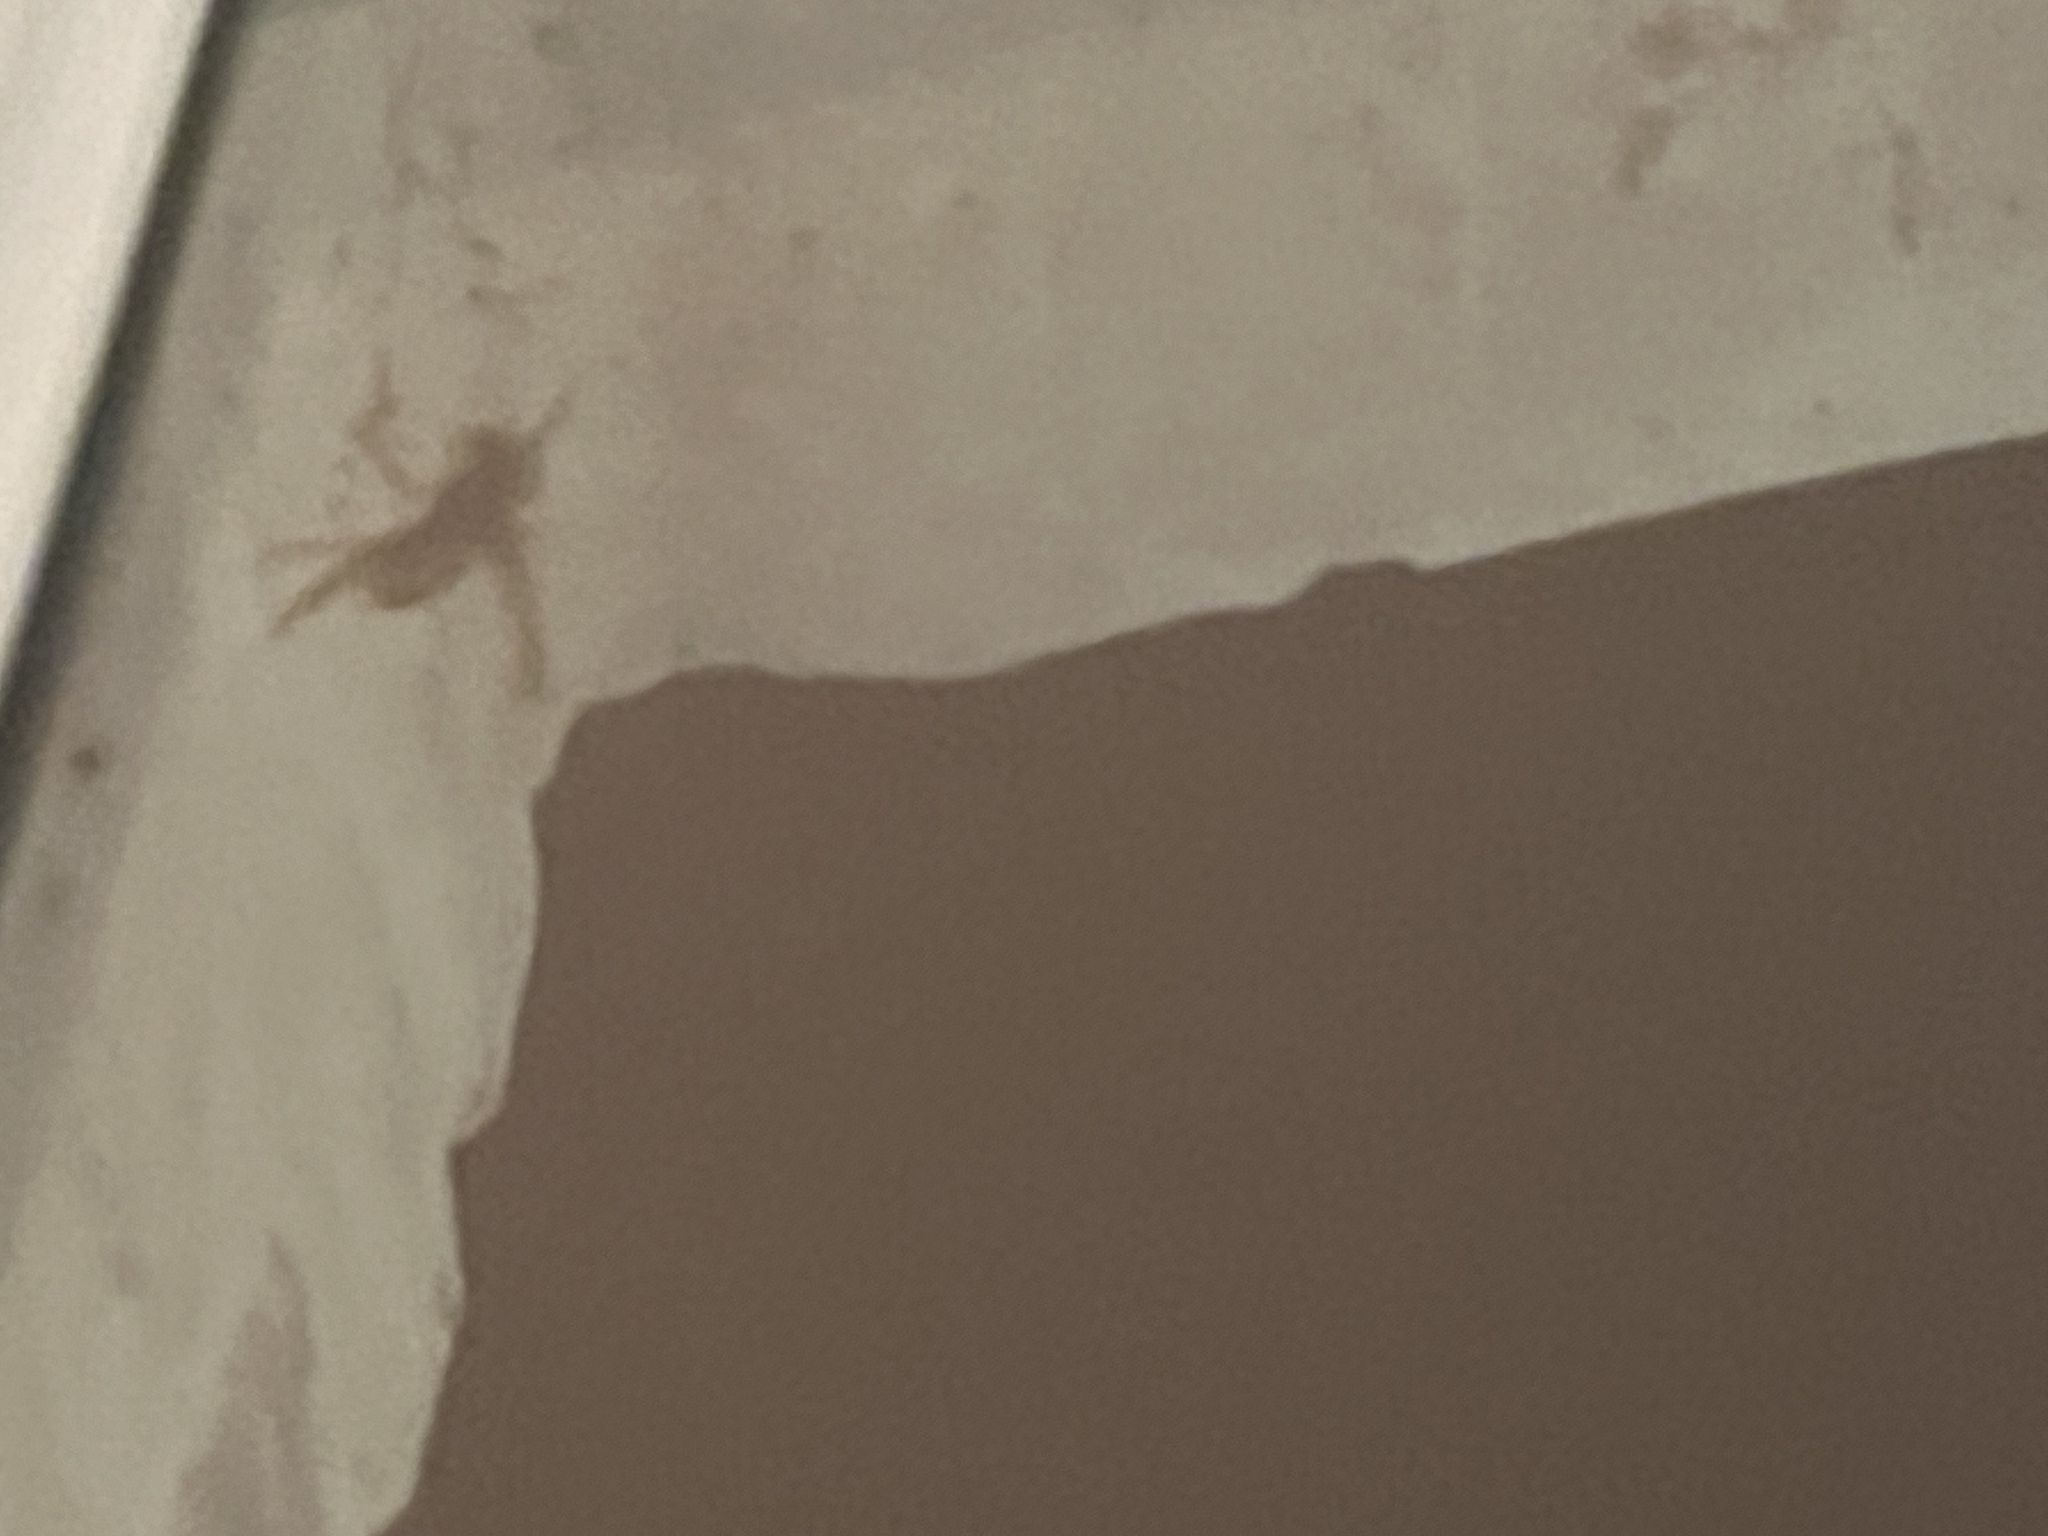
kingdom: Animalia
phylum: Arthropoda
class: Insecta
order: Hymenoptera
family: Vespidae
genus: Vespa
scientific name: Vespa crabro
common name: Hornet
